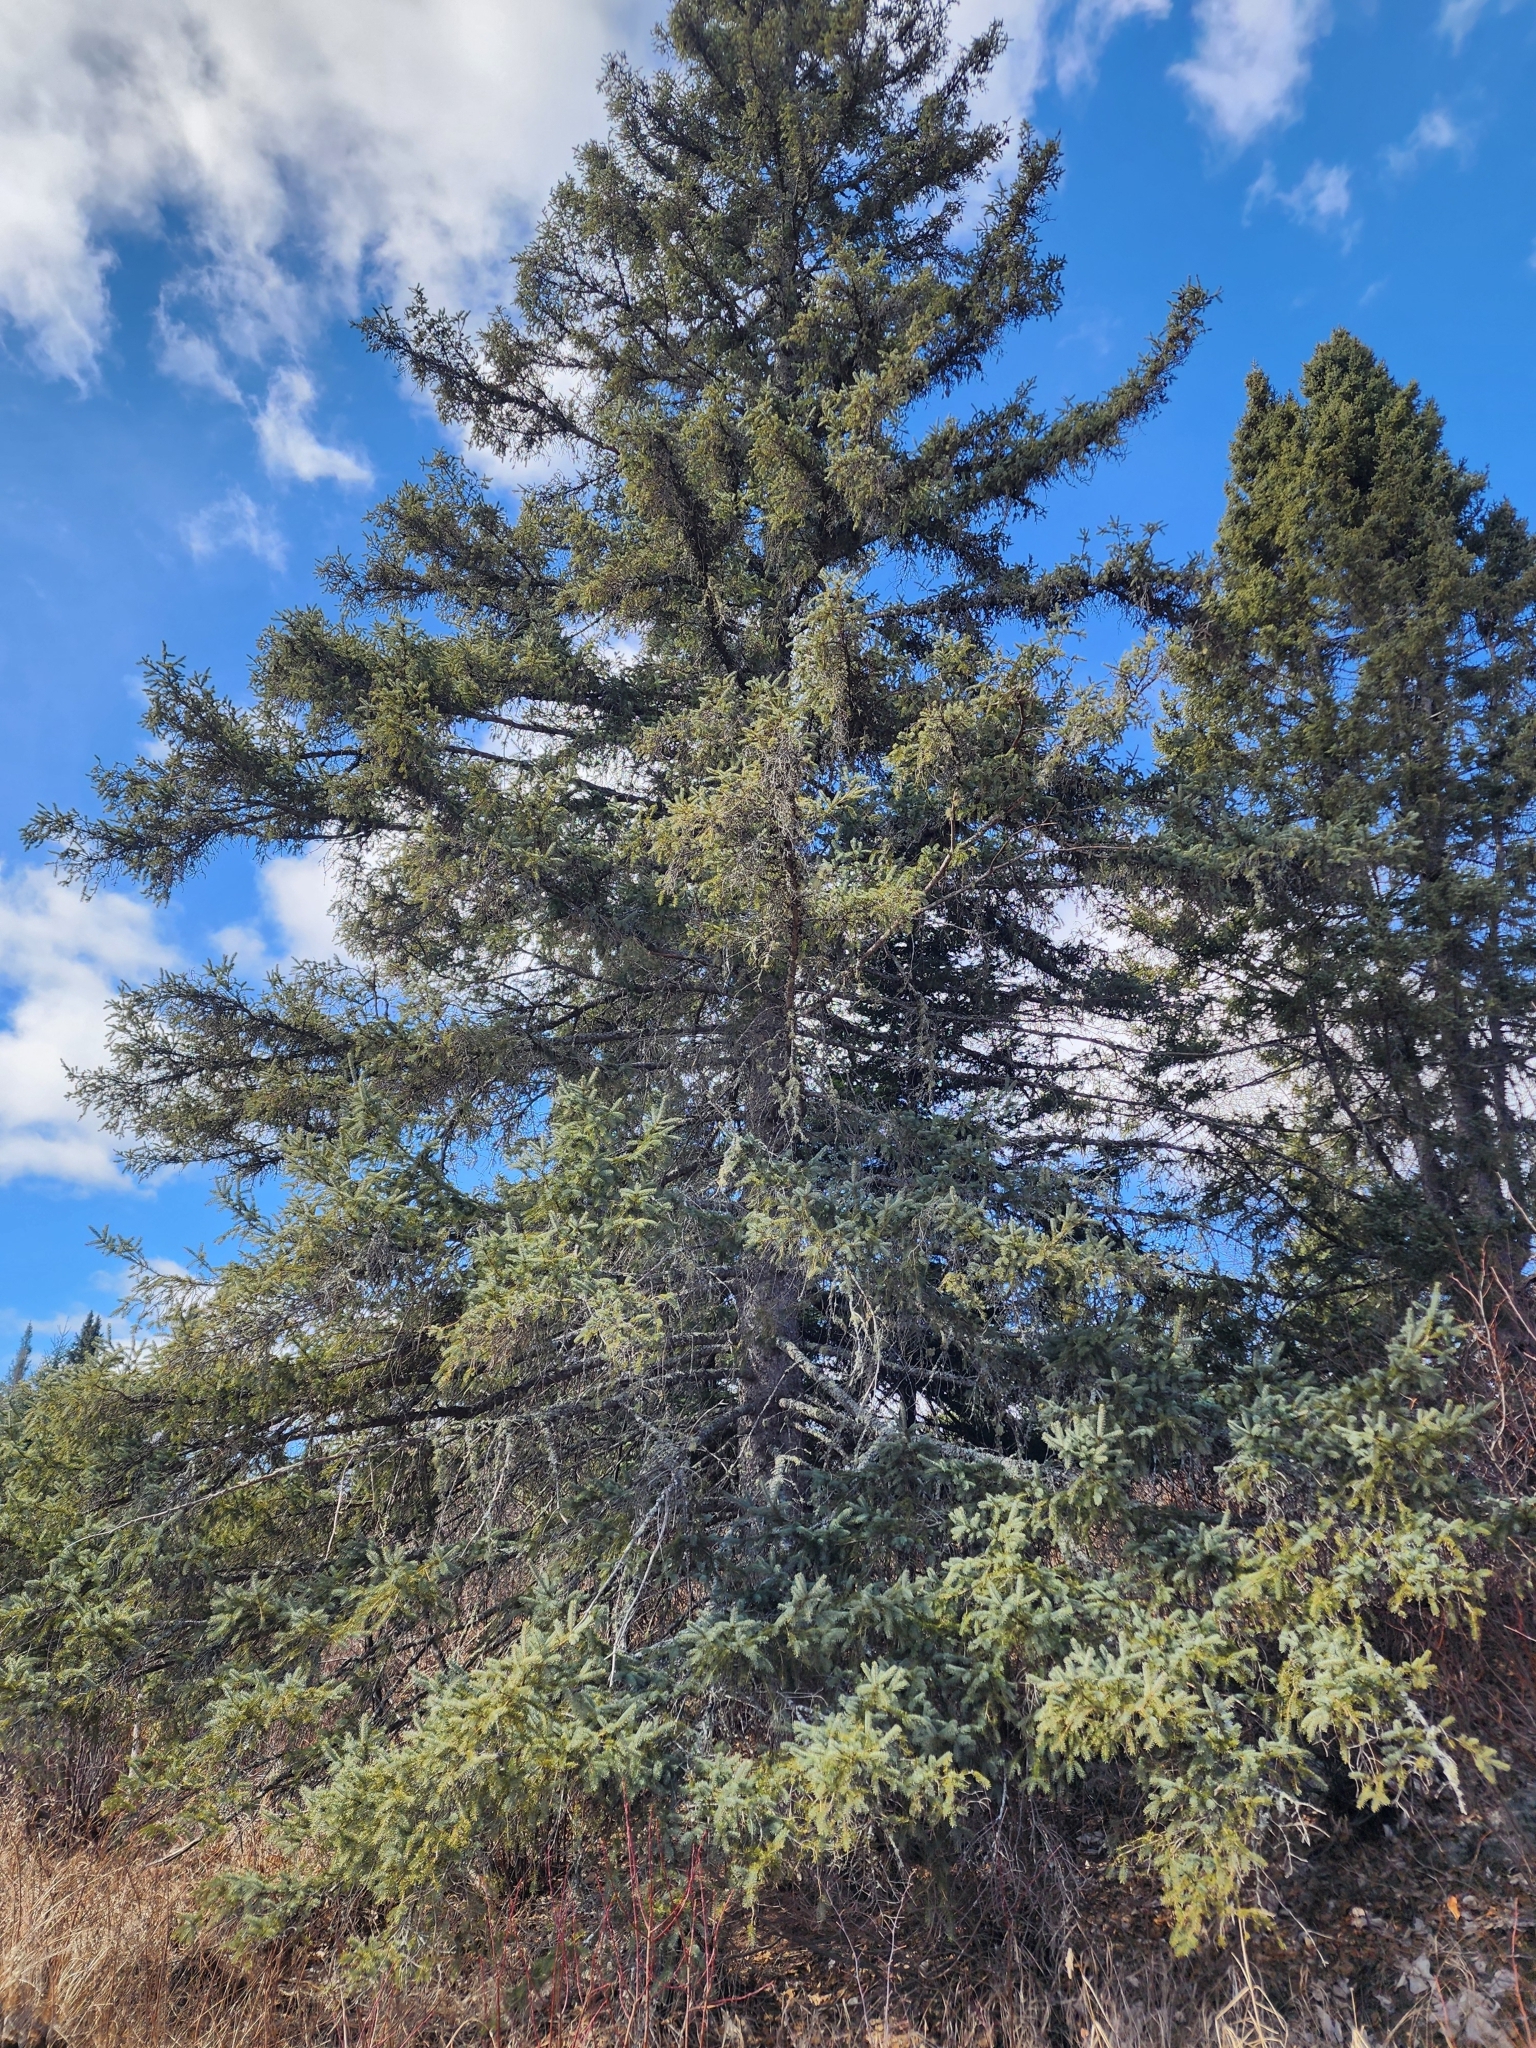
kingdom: Plantae
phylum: Tracheophyta
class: Pinopsida
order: Pinales
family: Pinaceae
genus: Picea
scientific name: Picea glauca
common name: White spruce
